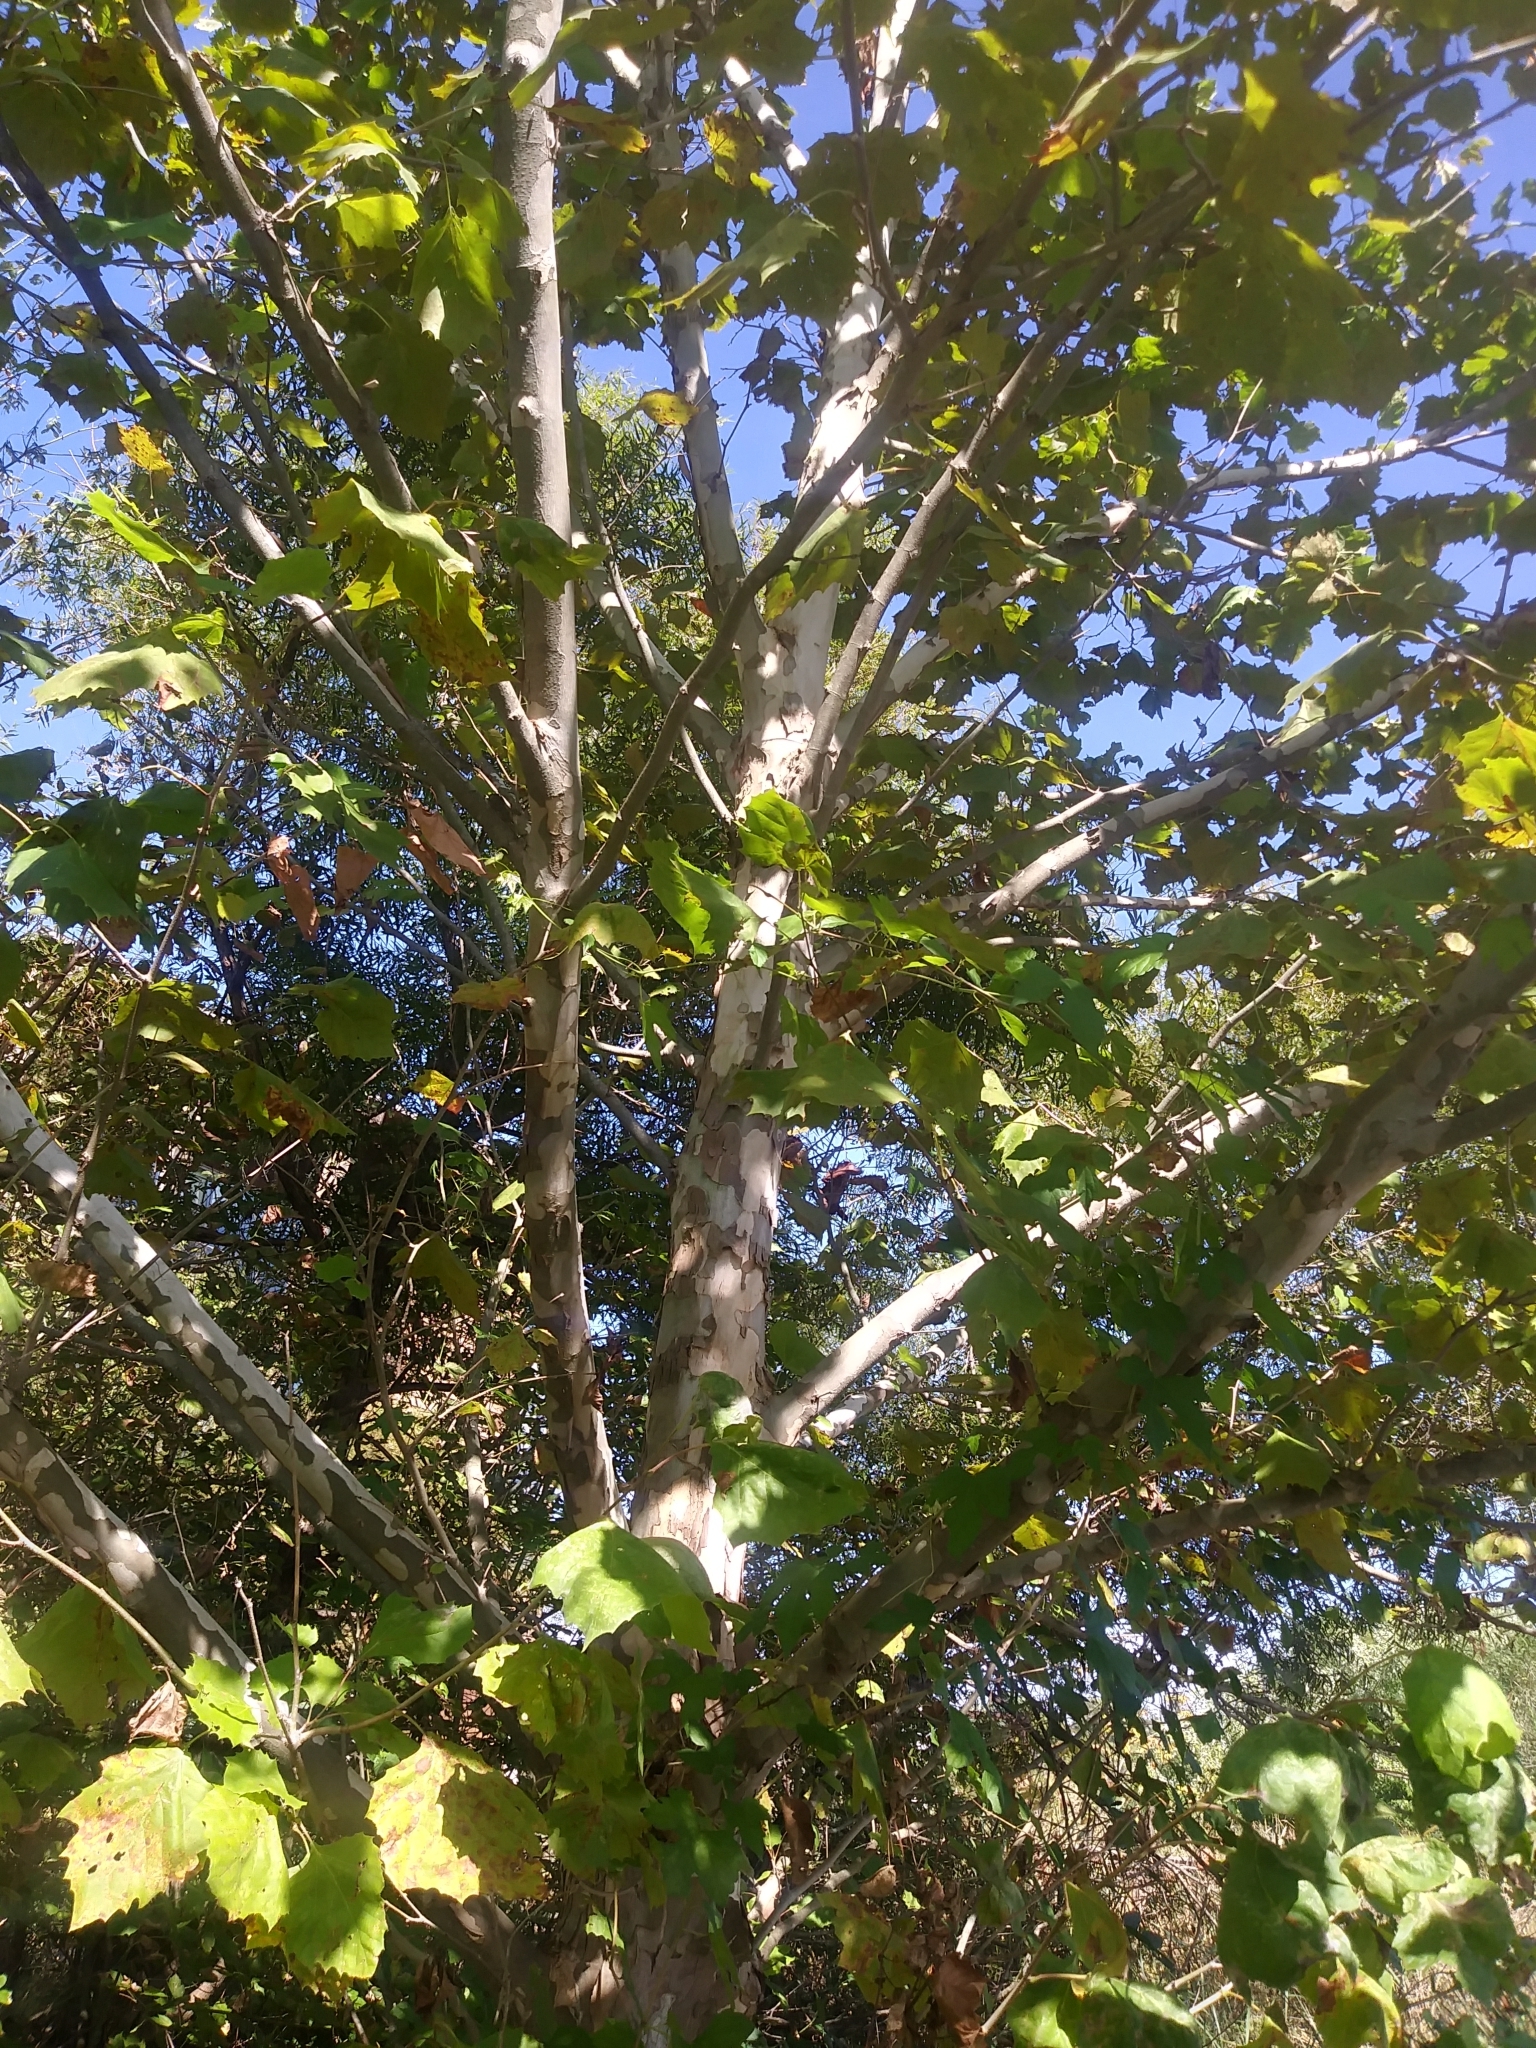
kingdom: Plantae
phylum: Tracheophyta
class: Magnoliopsida
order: Proteales
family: Platanaceae
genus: Platanus
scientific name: Platanus occidentalis
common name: American sycamore
